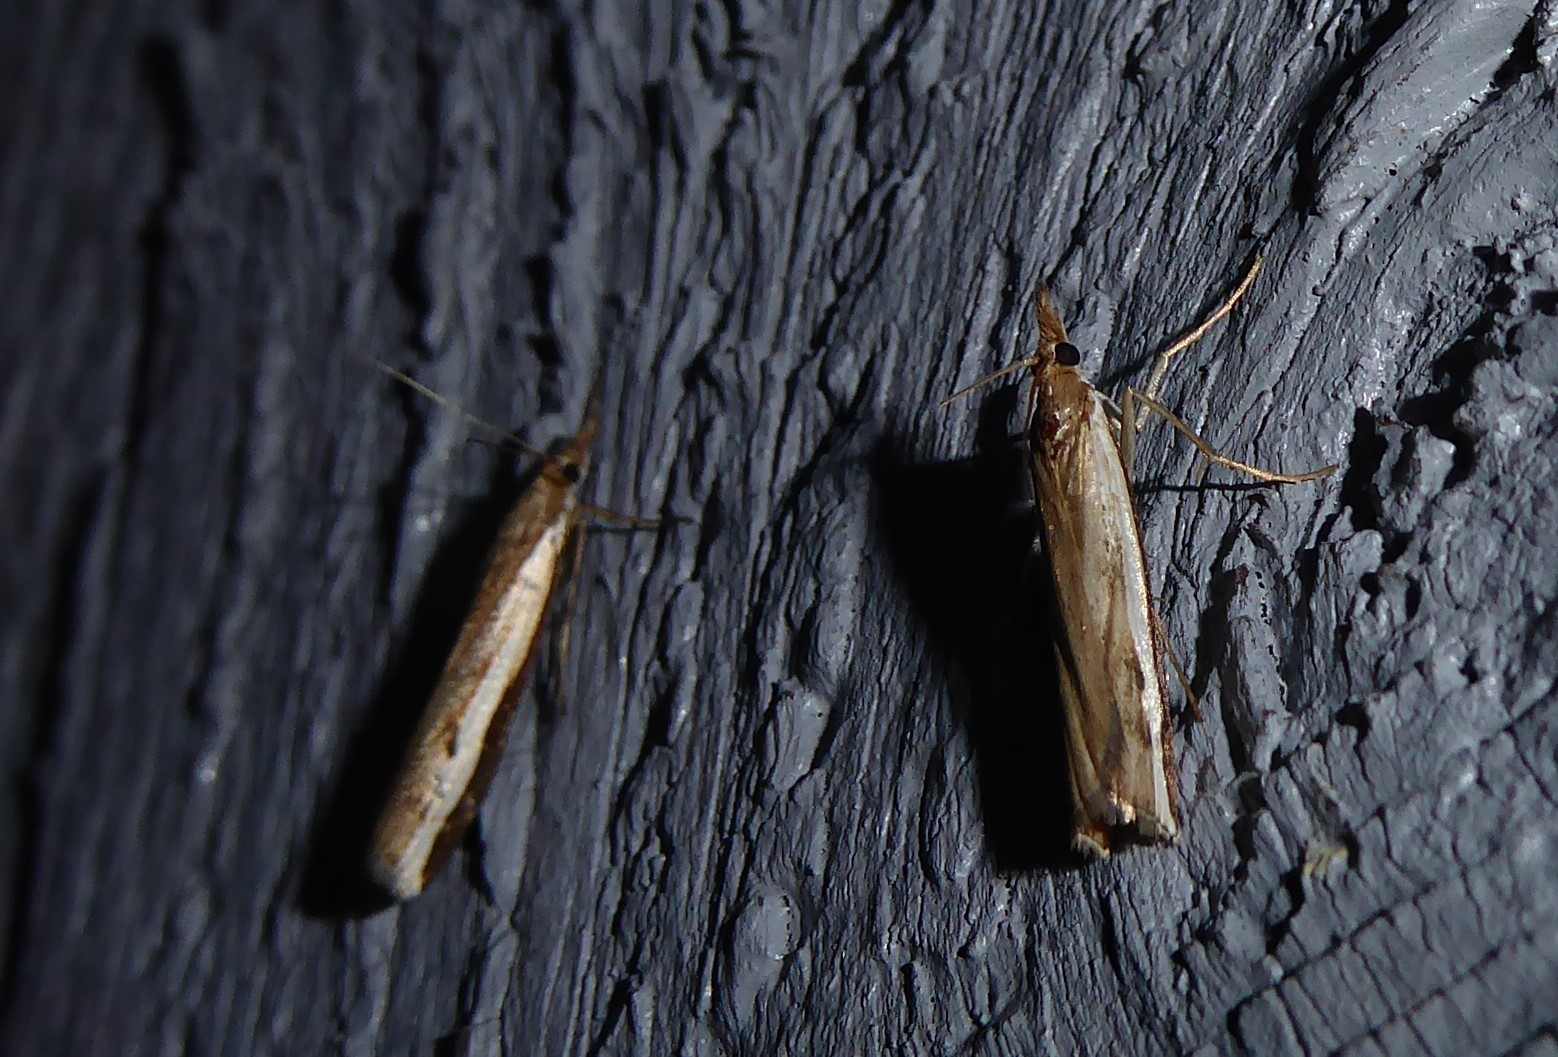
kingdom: Animalia
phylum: Arthropoda
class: Insecta
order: Lepidoptera
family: Crambidae
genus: Orocrambus
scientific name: Orocrambus flexuosellus
